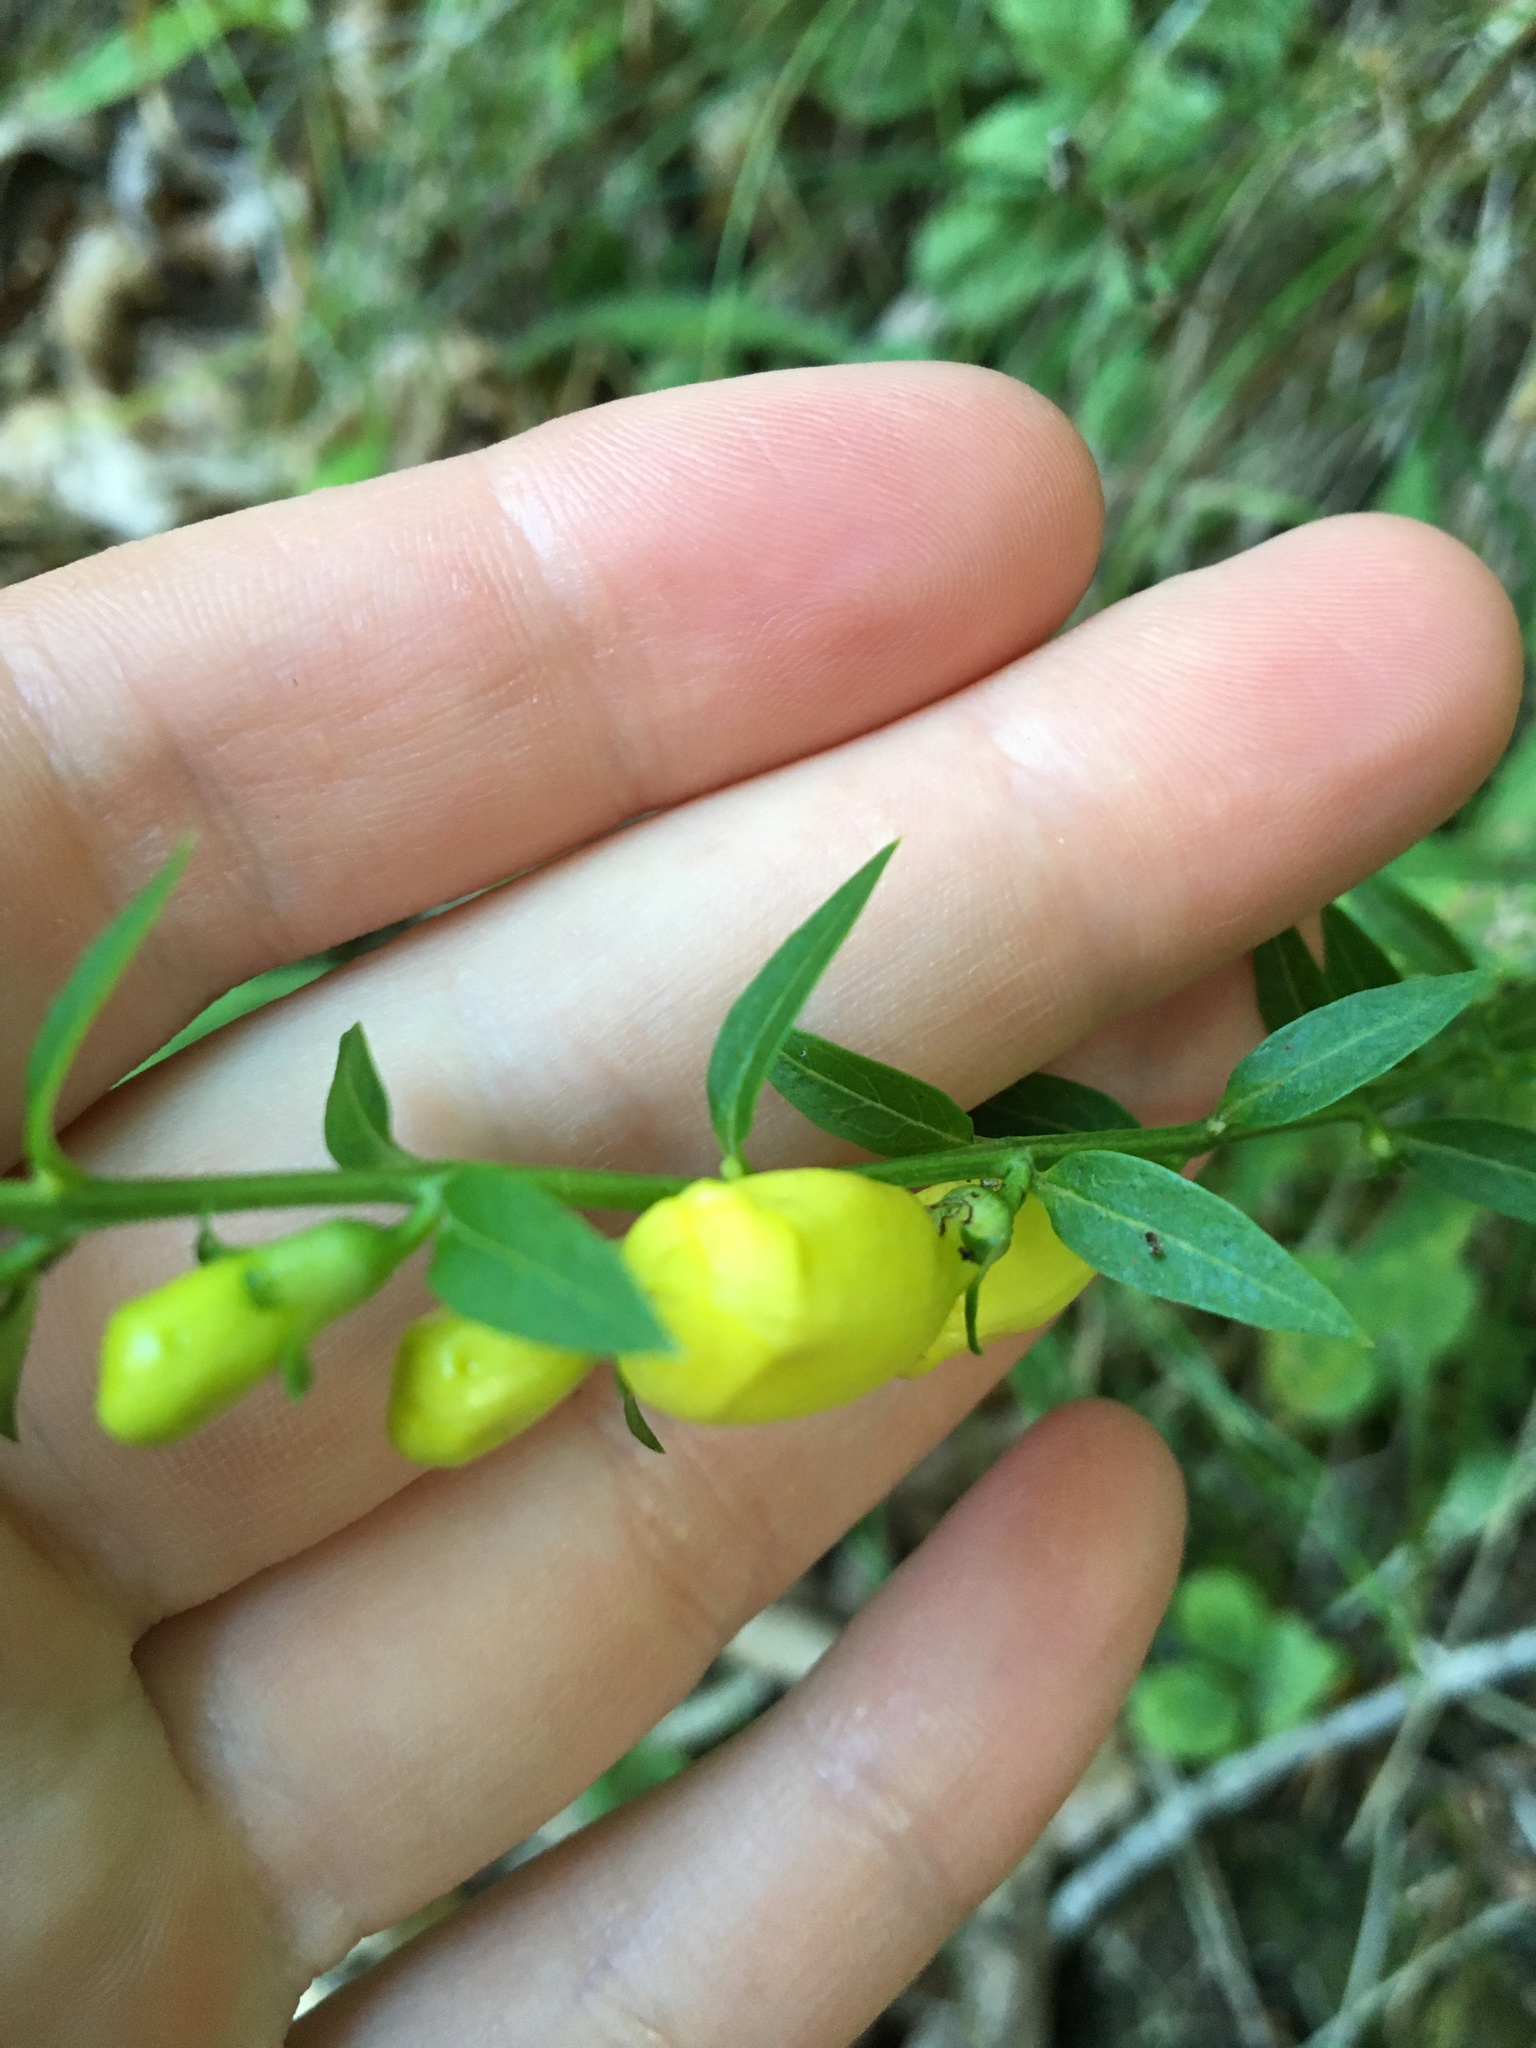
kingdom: Plantae
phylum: Tracheophyta
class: Magnoliopsida
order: Lamiales
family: Orobanchaceae
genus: Aureolaria
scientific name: Aureolaria flava
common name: Smooth false foxglove
